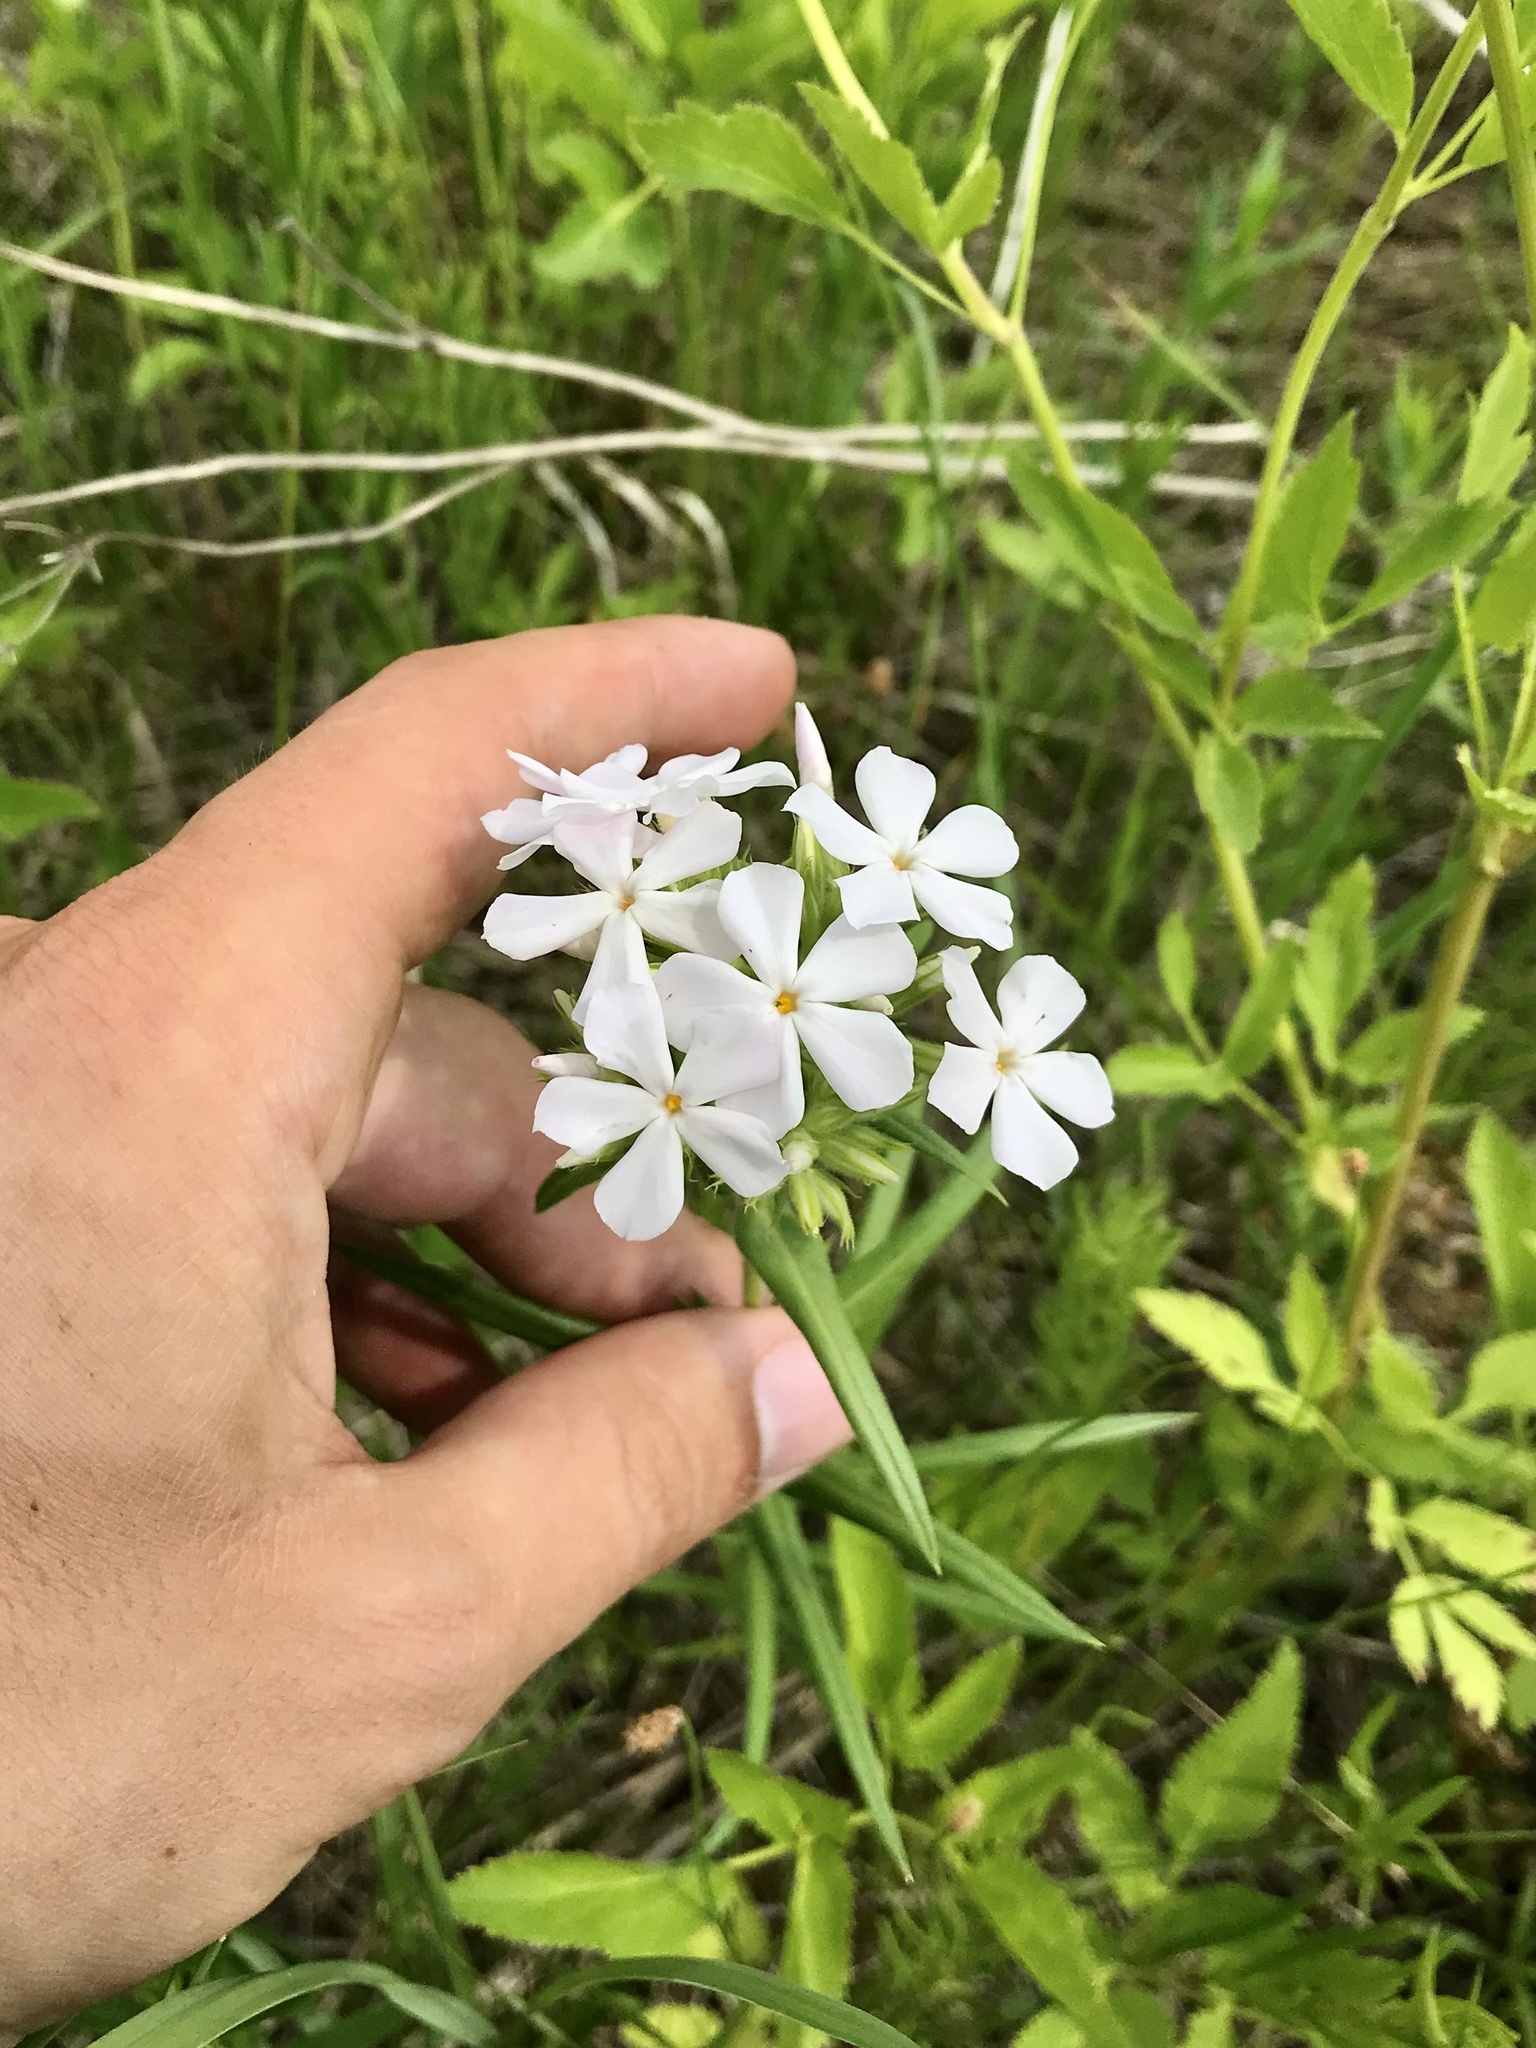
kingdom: Plantae
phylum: Tracheophyta
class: Magnoliopsida
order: Ericales
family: Polemoniaceae
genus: Phlox
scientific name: Phlox pilosa
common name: Prairie phlox
